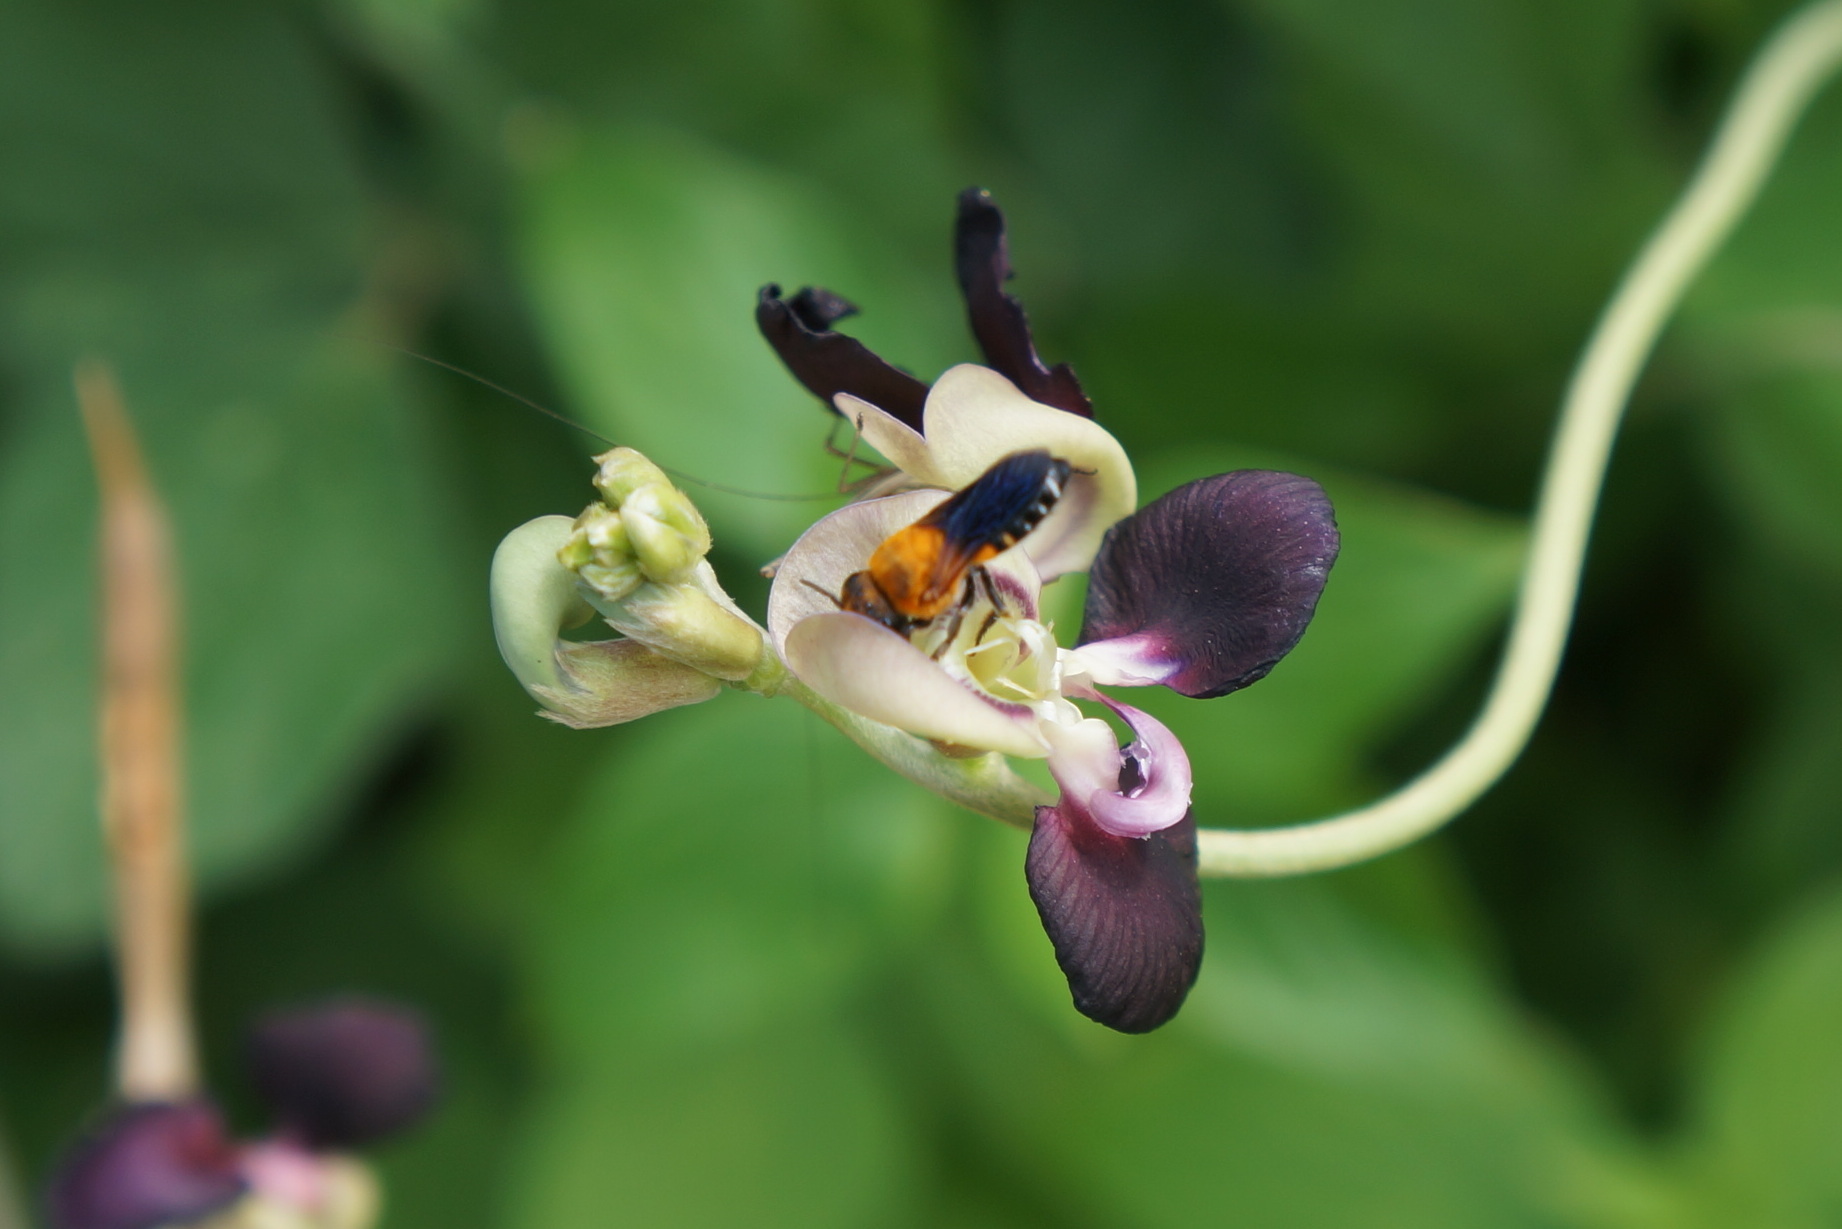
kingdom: Plantae
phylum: Tracheophyta
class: Magnoliopsida
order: Fabales
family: Fabaceae
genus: Macroptilium
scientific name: Macroptilium atropurpureum
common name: Purple bushbean
